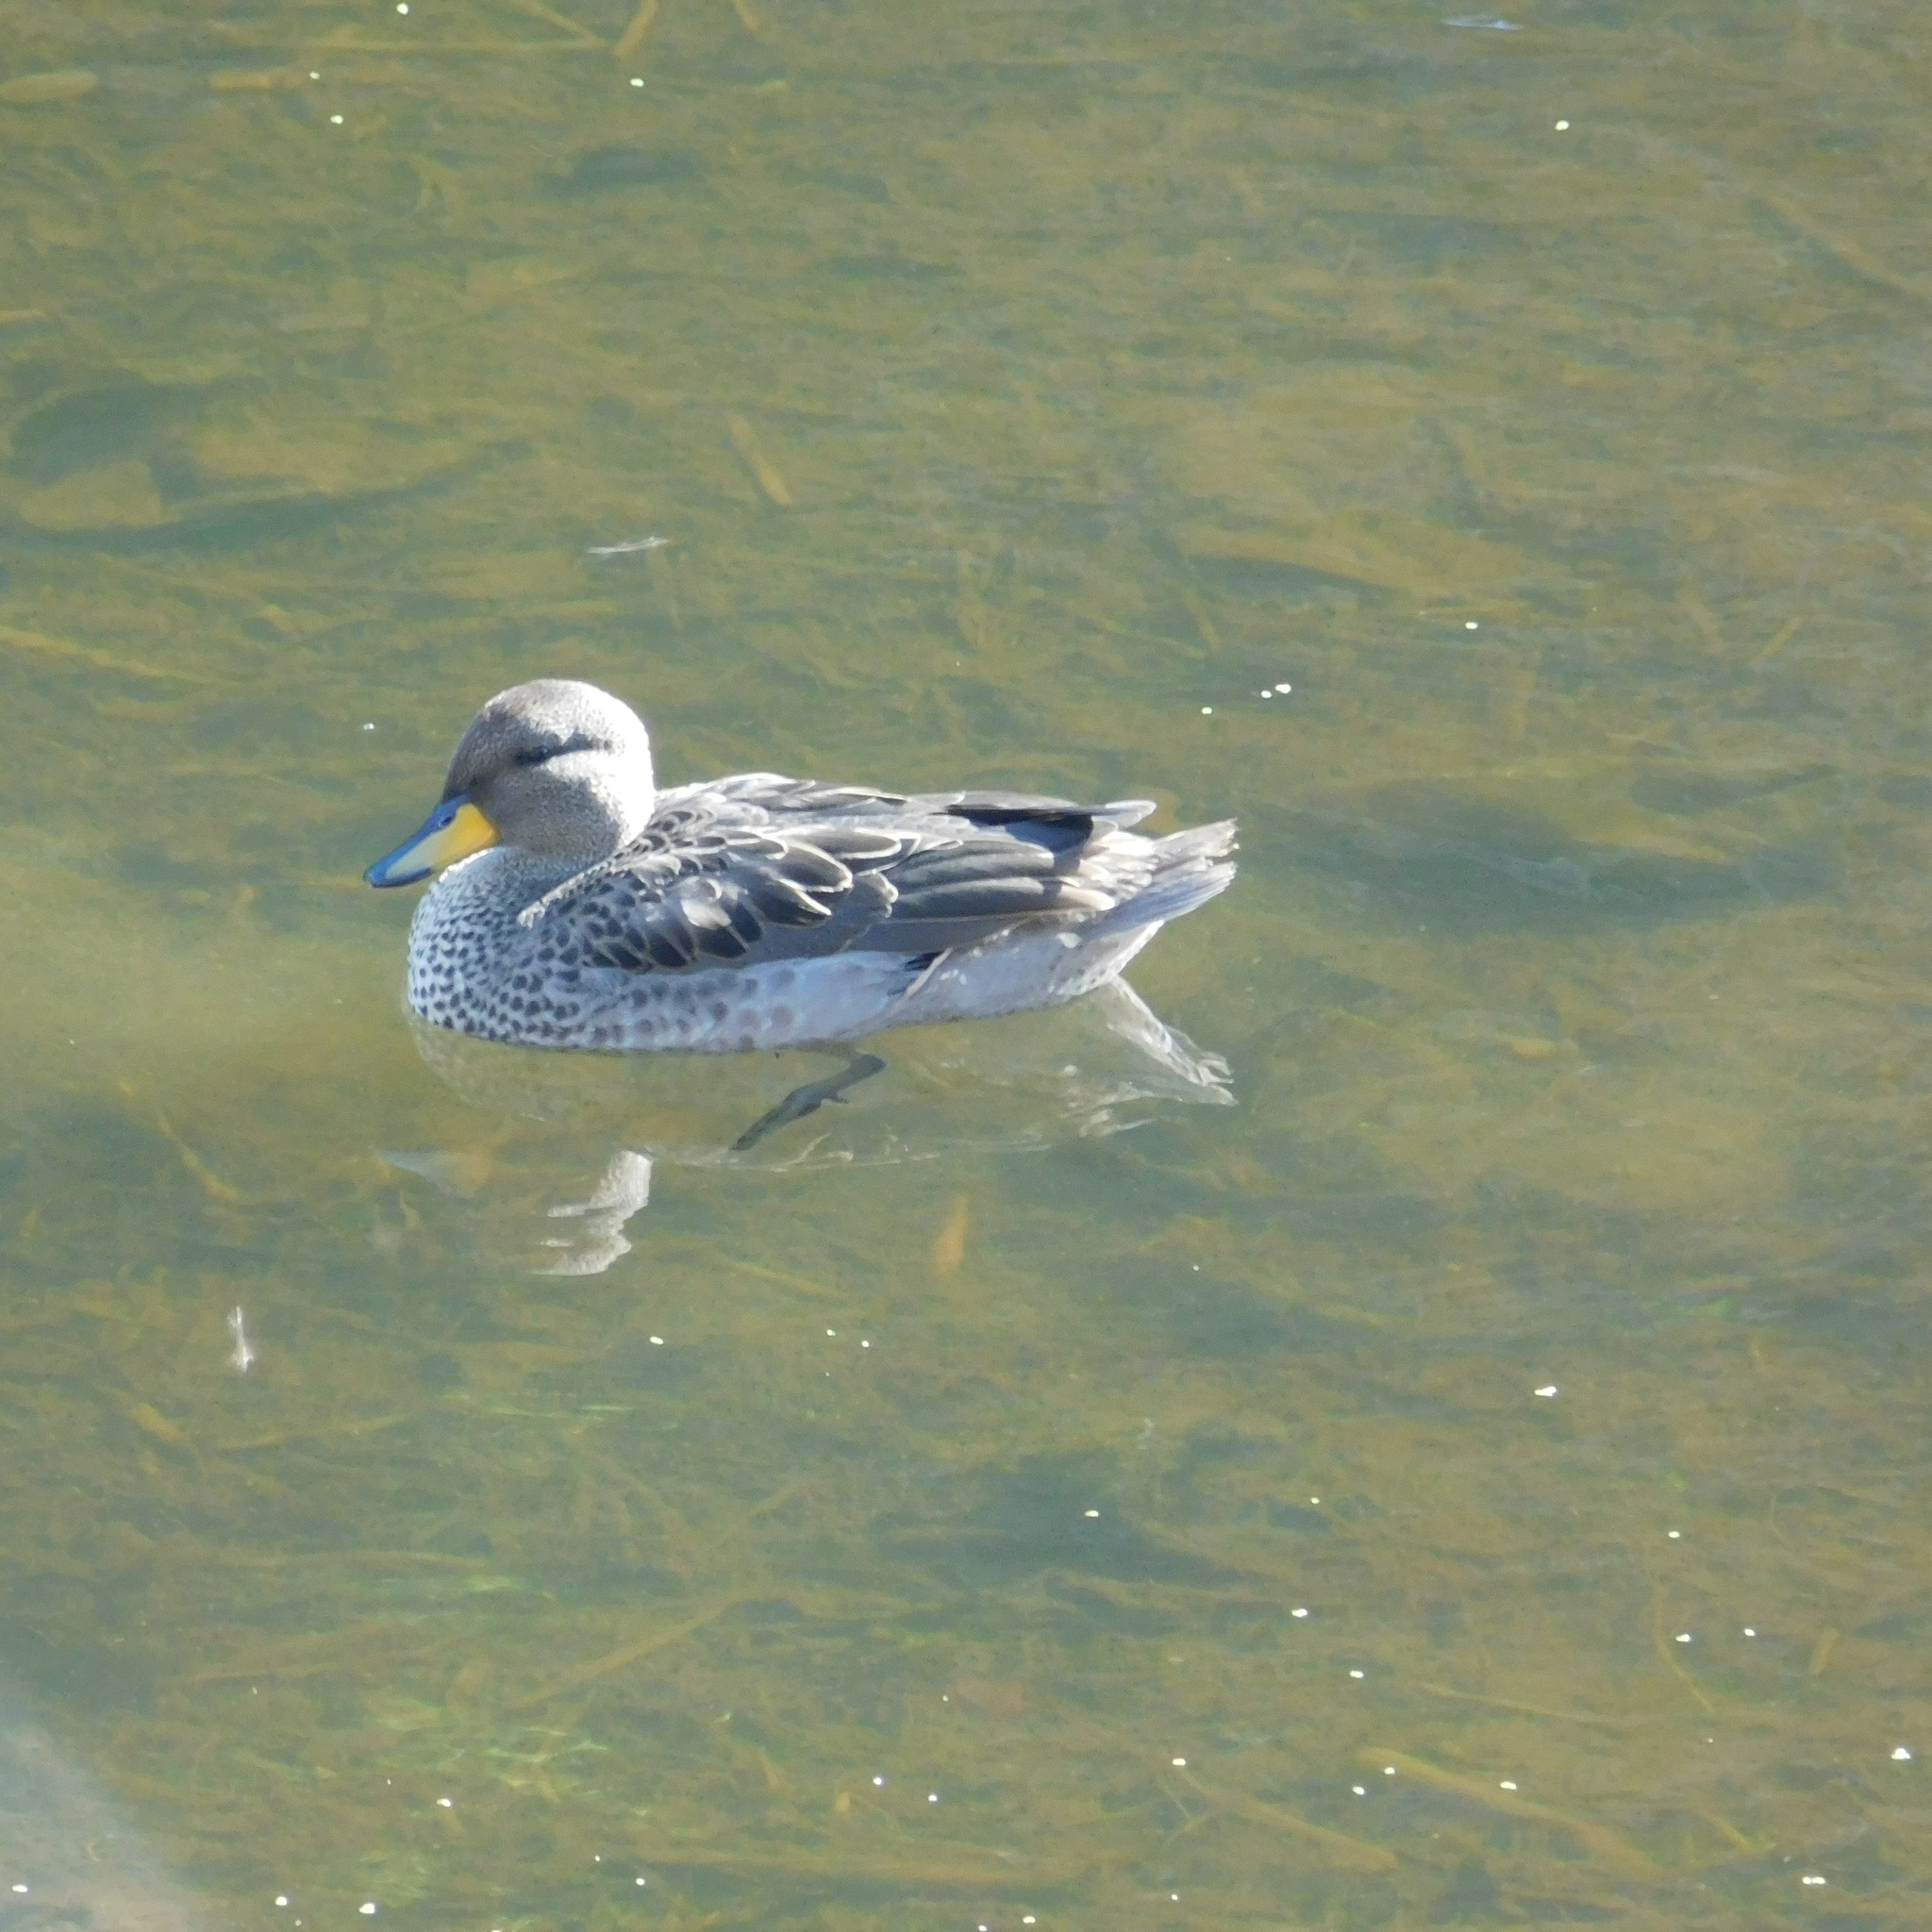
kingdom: Animalia
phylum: Chordata
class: Aves
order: Anseriformes
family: Anatidae
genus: Anas
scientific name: Anas flavirostris
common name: Yellow-billed teal
